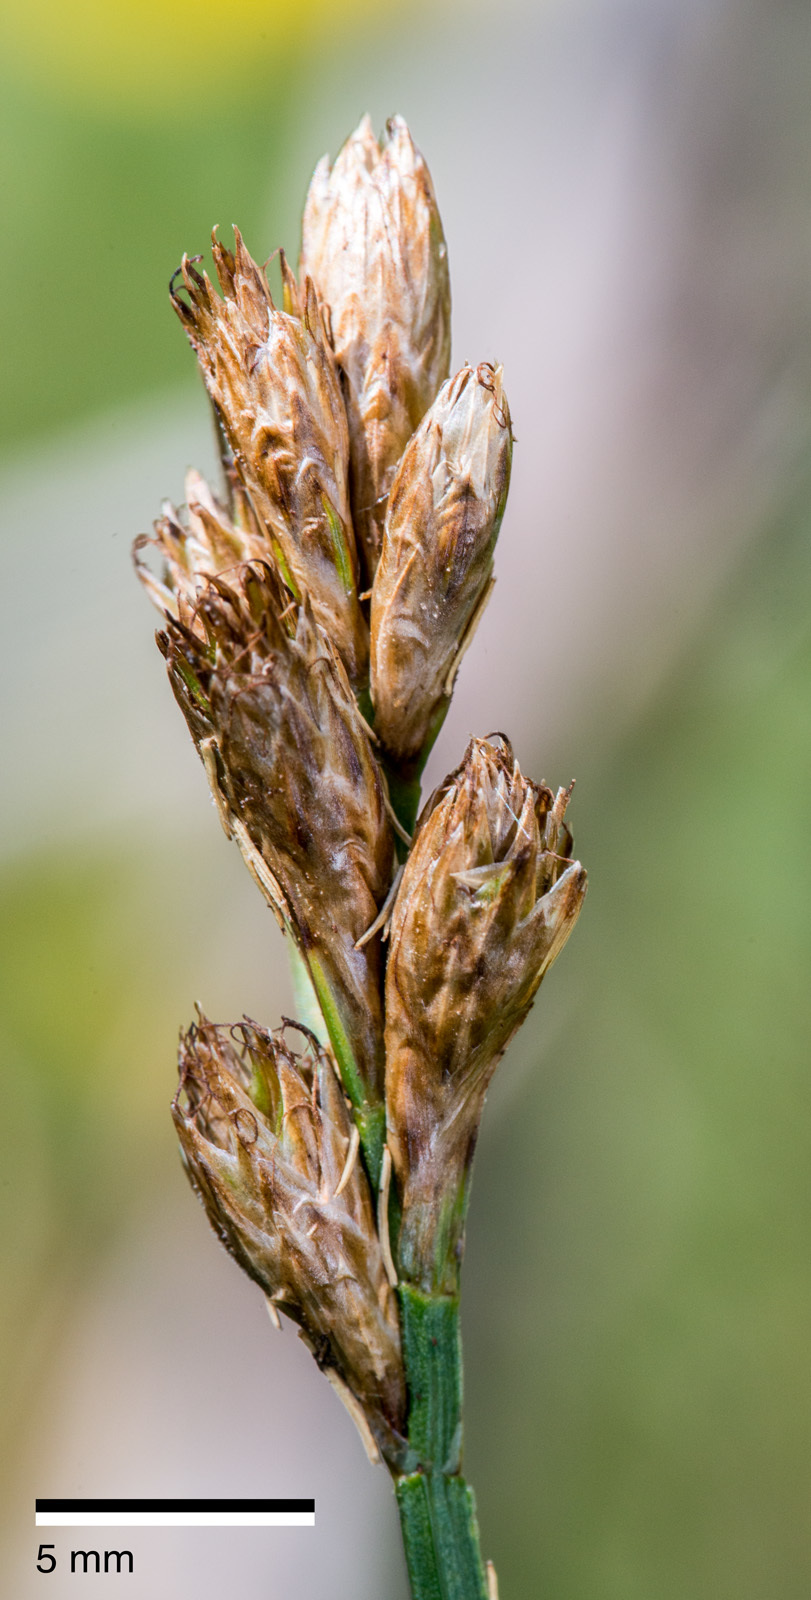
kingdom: Plantae
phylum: Tracheophyta
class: Liliopsida
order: Poales
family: Cyperaceae
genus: Lepidosperma
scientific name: Lepidosperma australe
